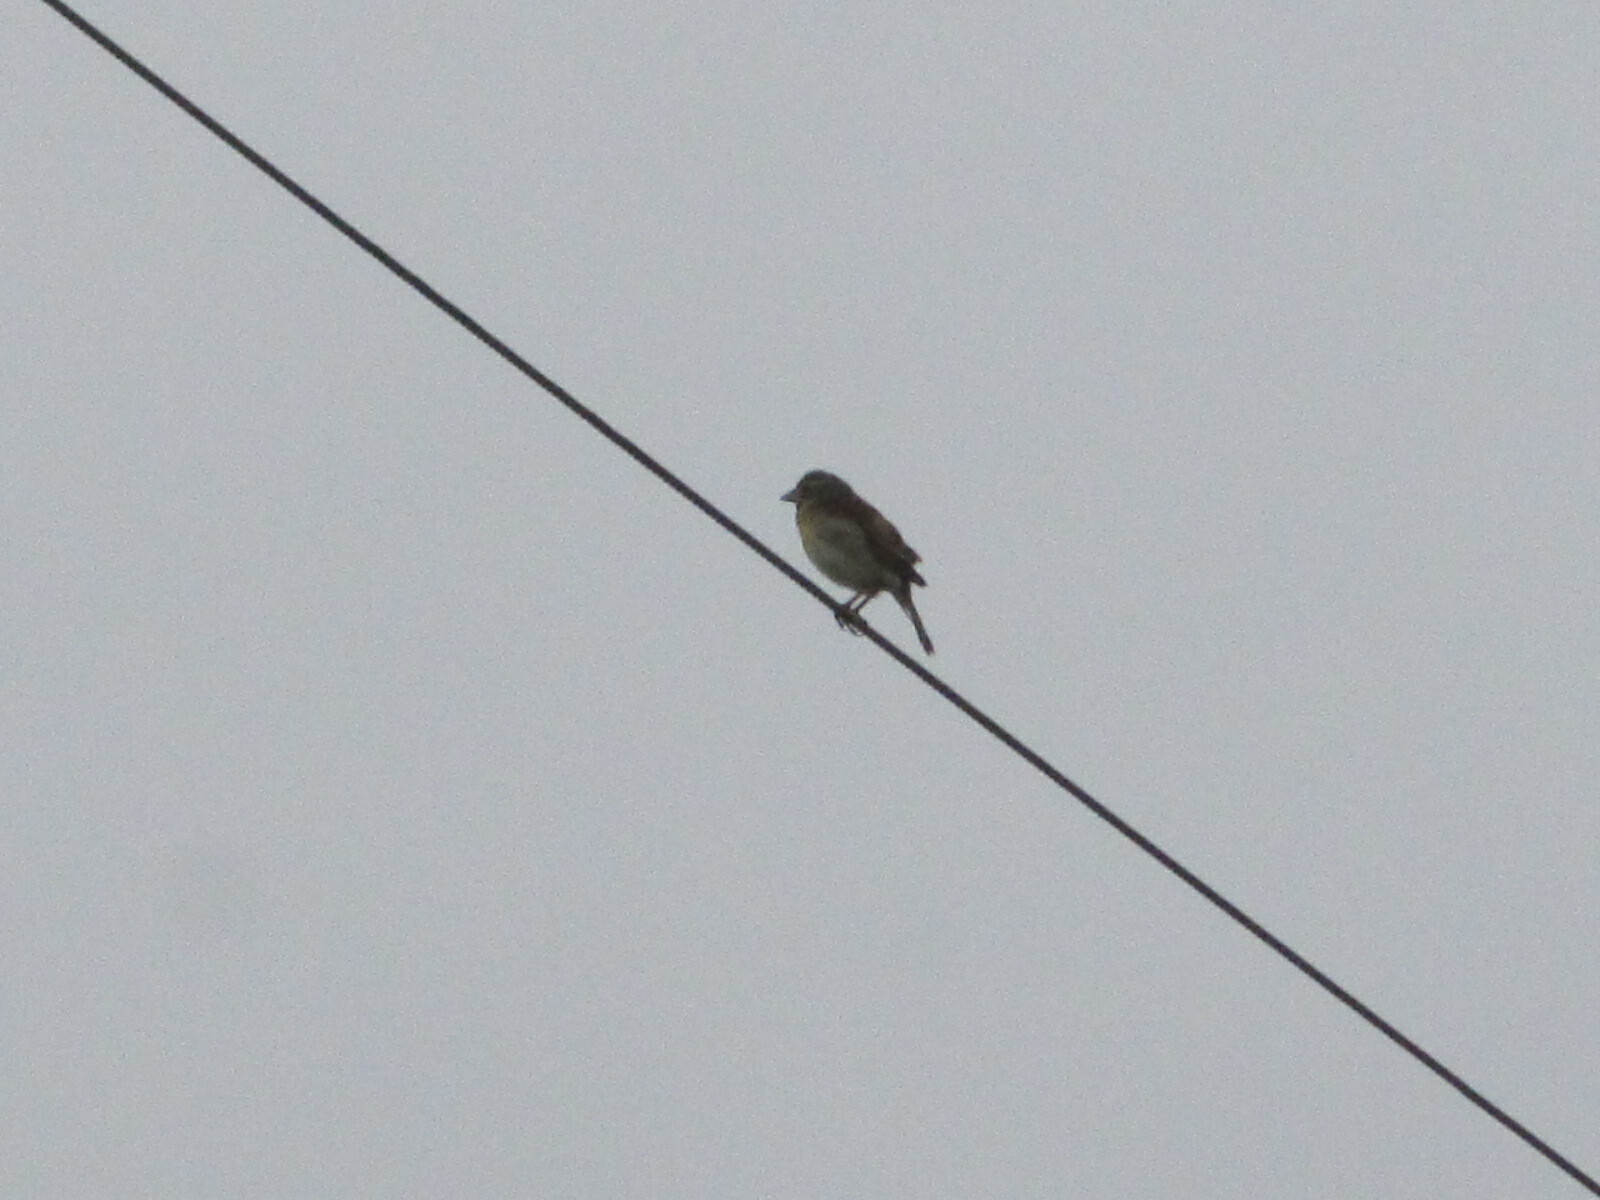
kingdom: Animalia
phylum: Chordata
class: Aves
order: Passeriformes
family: Cardinalidae
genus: Spiza
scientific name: Spiza americana
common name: Dickcissel
